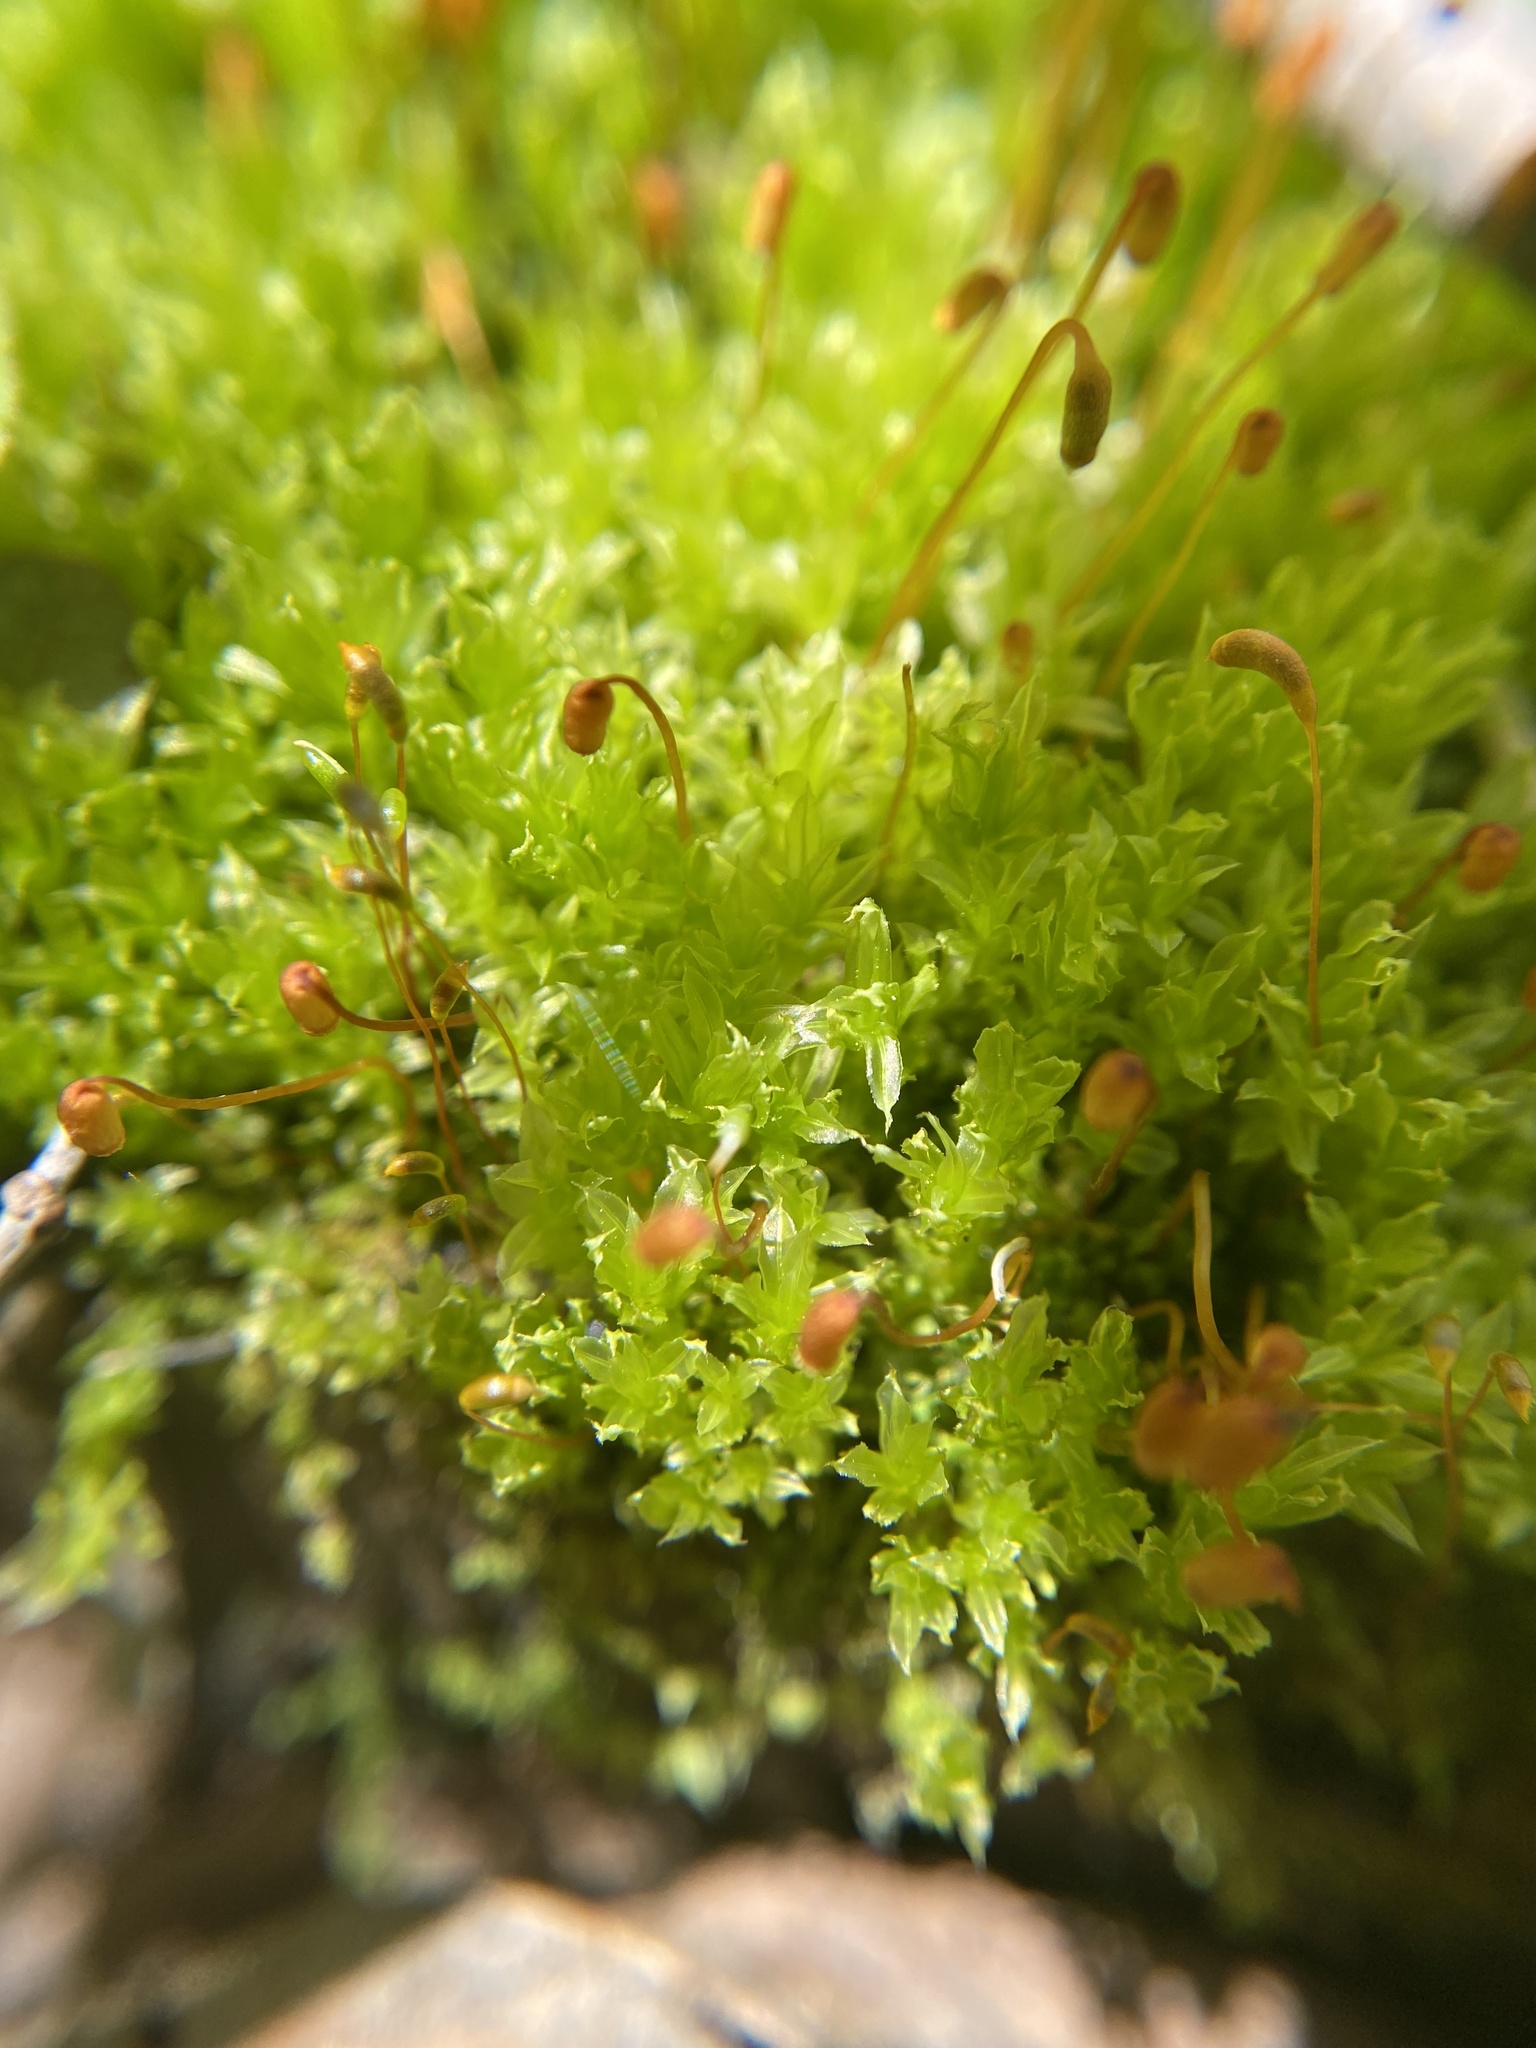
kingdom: Plantae
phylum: Bryophyta
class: Bryopsida
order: Bryales
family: Mniaceae
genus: Plagiomnium
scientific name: Plagiomnium cuspidatum
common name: Woodsy leafy moss
